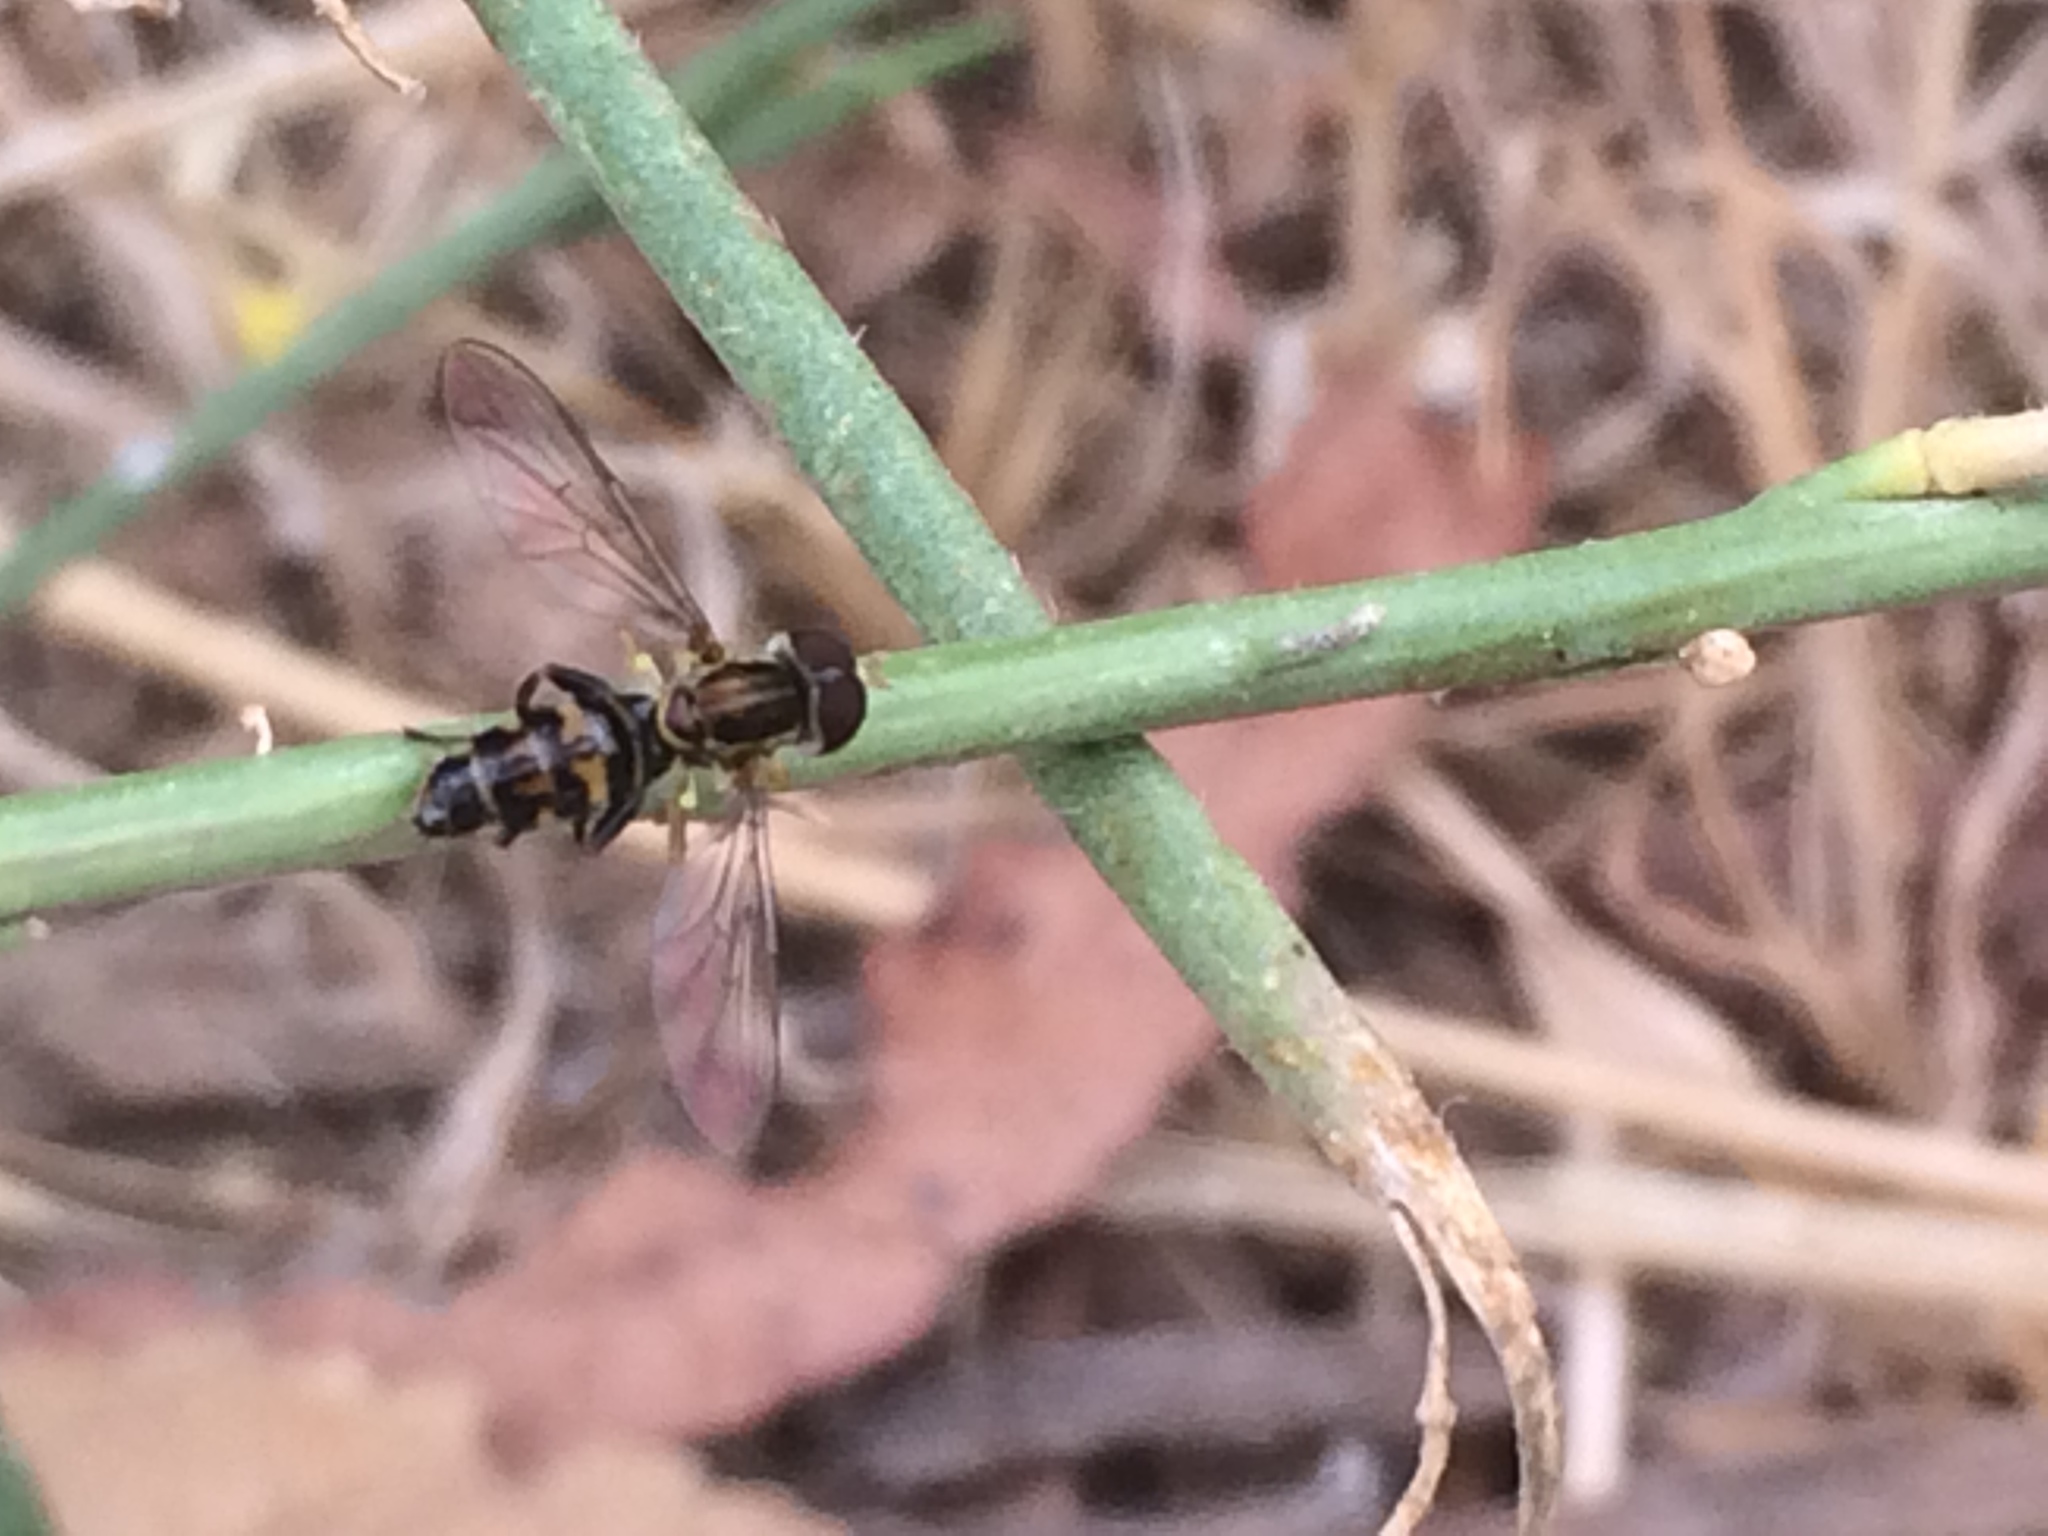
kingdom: Animalia
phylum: Arthropoda
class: Insecta
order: Diptera
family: Syrphidae
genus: Toxomerus
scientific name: Toxomerus occidentalis
